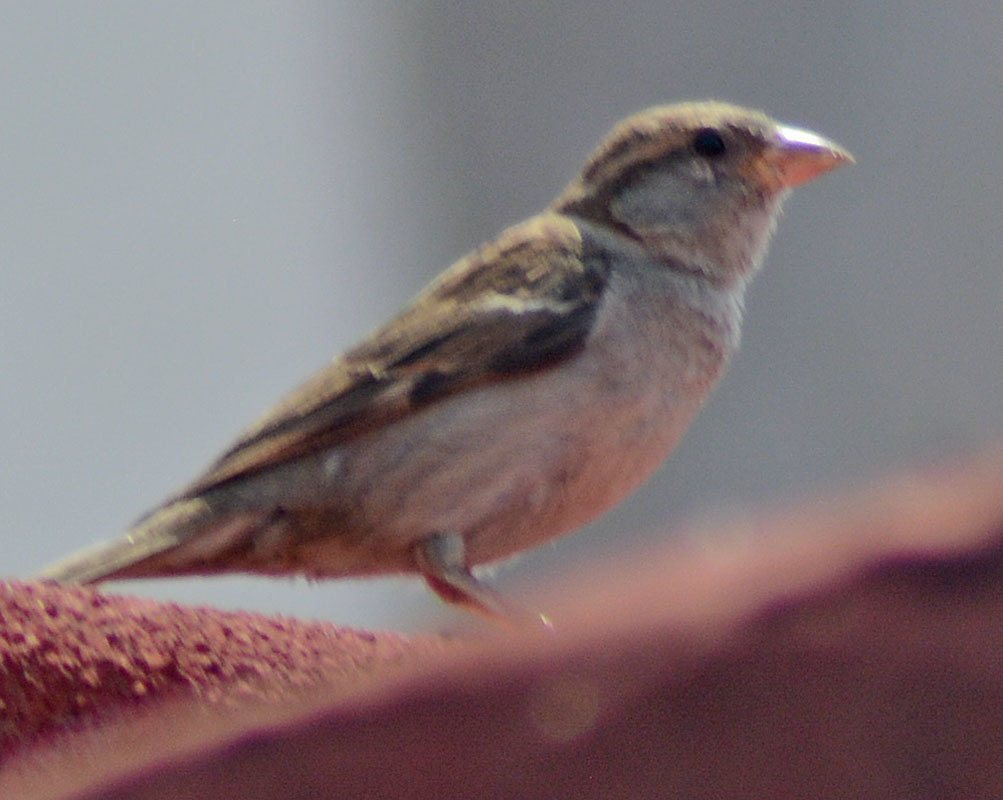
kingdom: Animalia
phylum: Chordata
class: Aves
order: Passeriformes
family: Passeridae
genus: Passer
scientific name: Passer domesticus
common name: House sparrow
